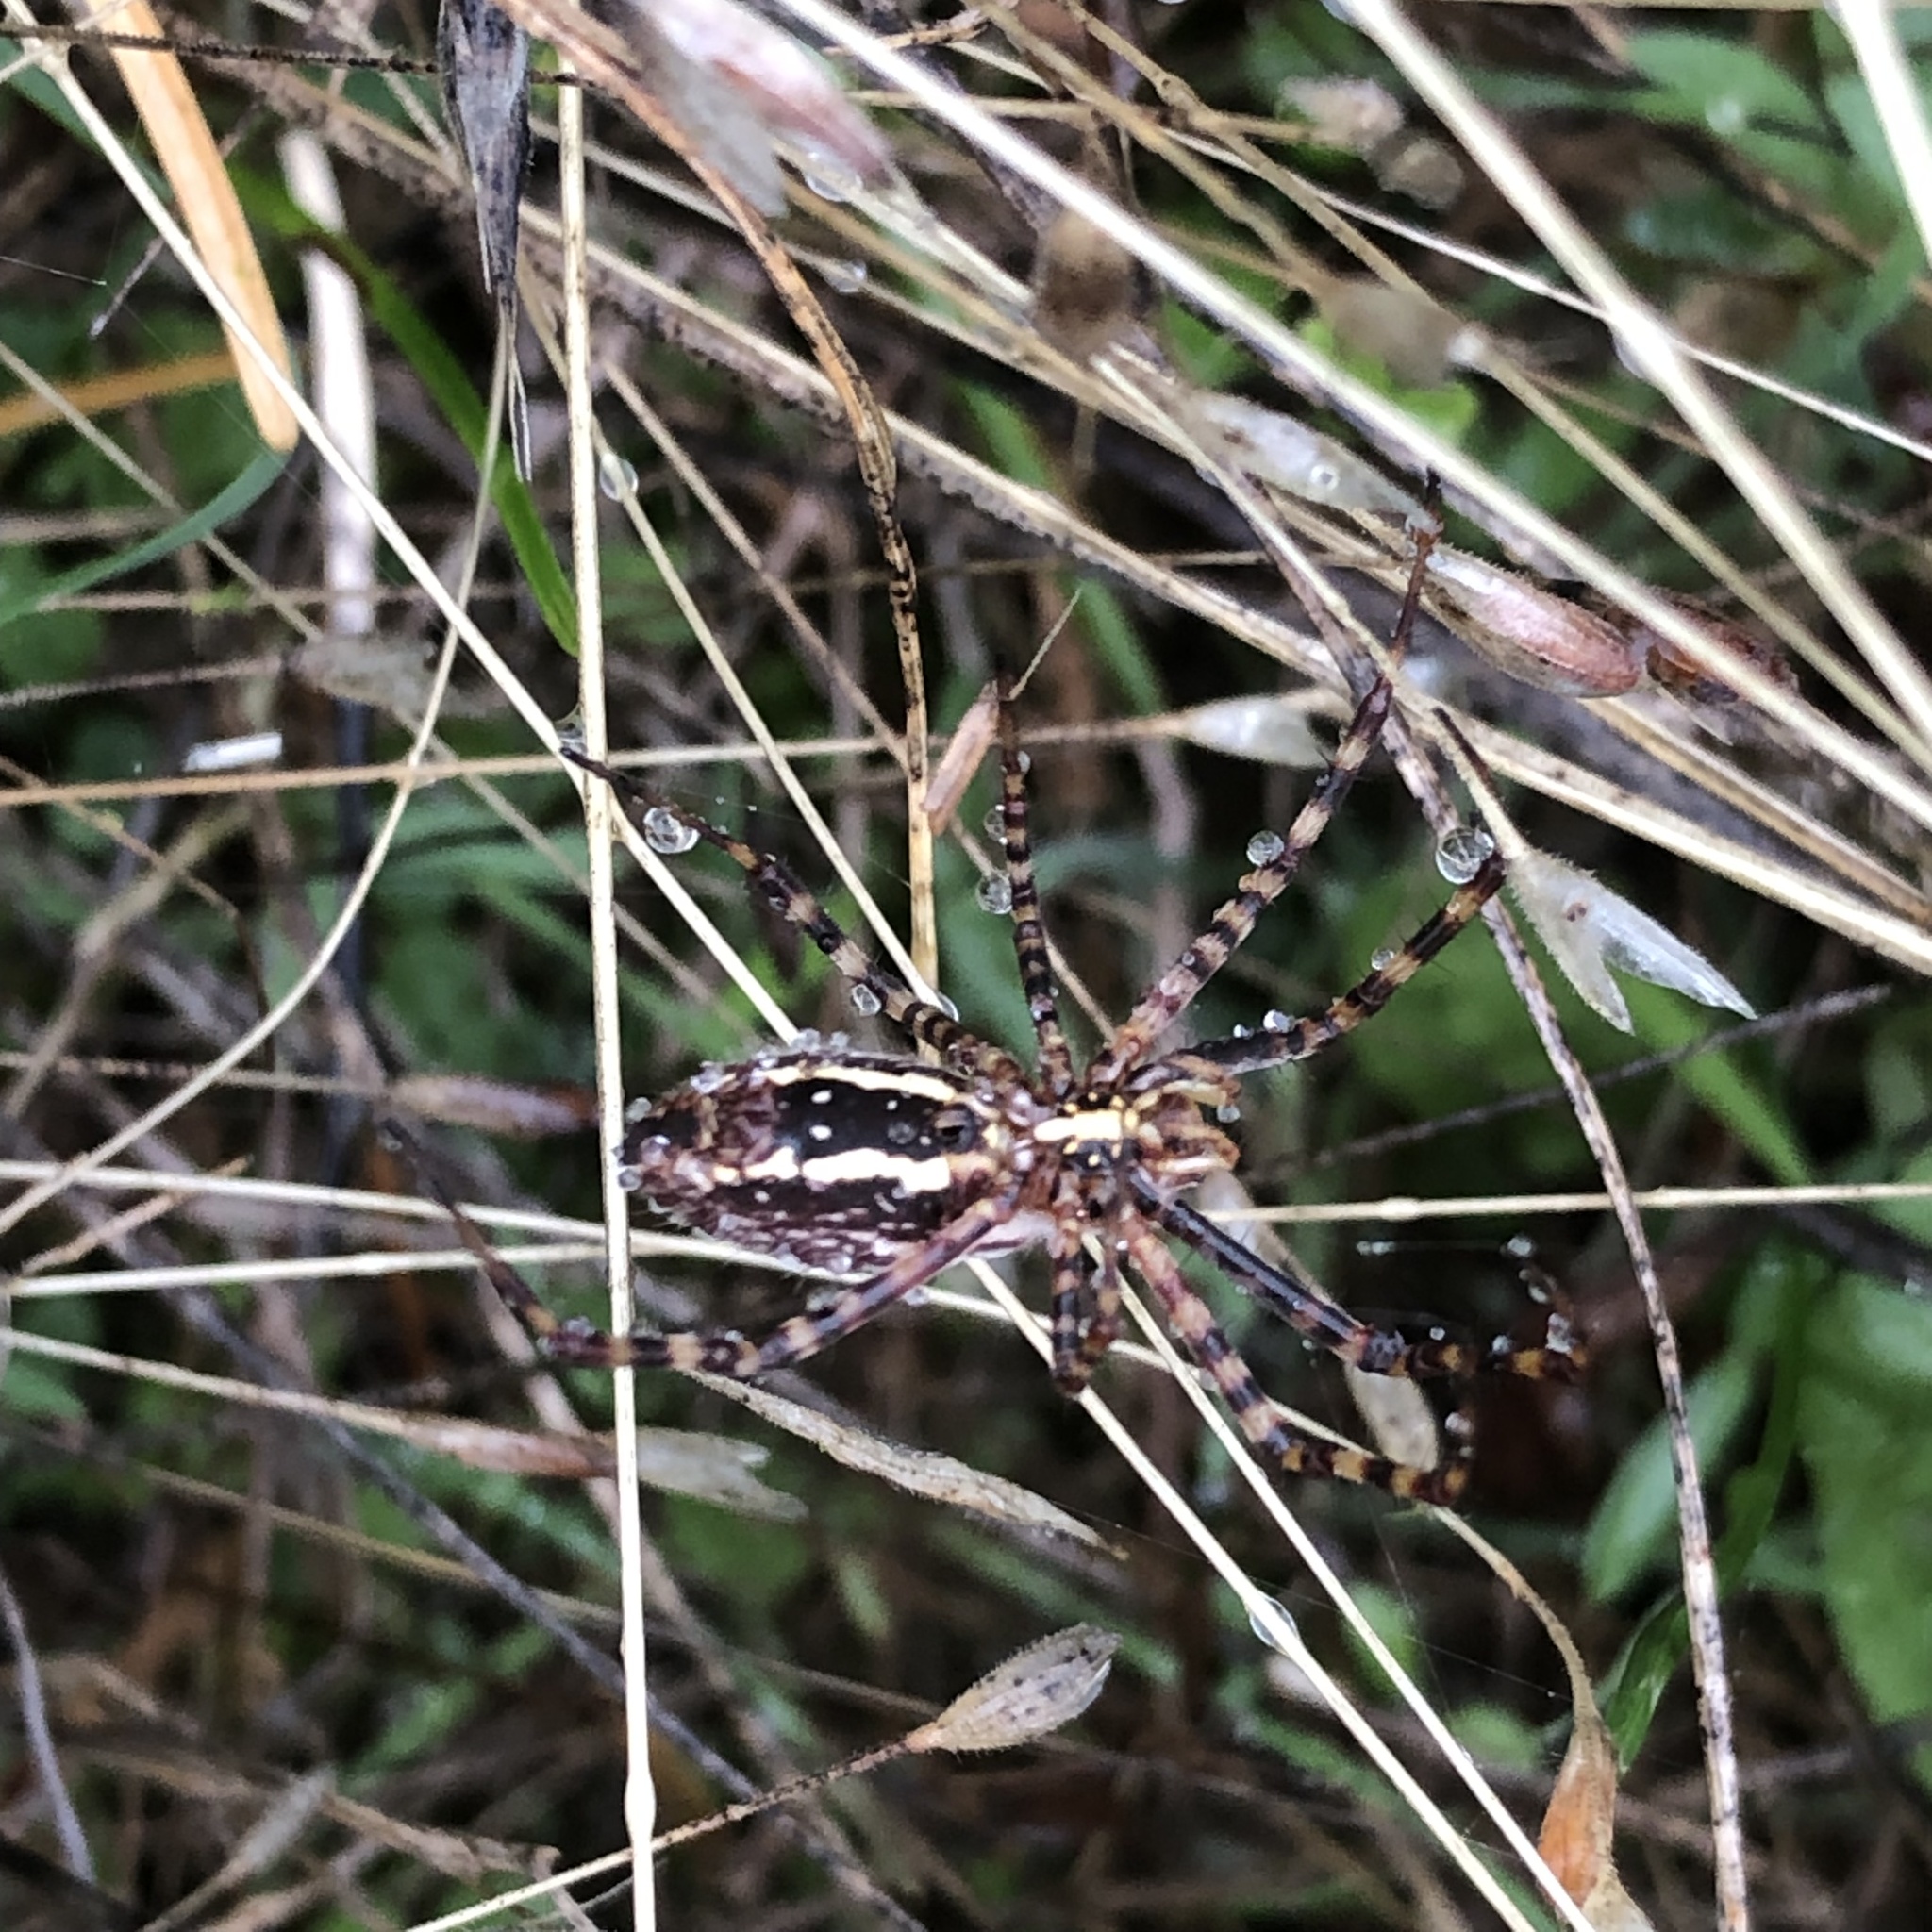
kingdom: Animalia
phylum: Arthropoda
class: Arachnida
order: Araneae
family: Araneidae
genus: Argiope
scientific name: Argiope trifasciata
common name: Banded garden spider
